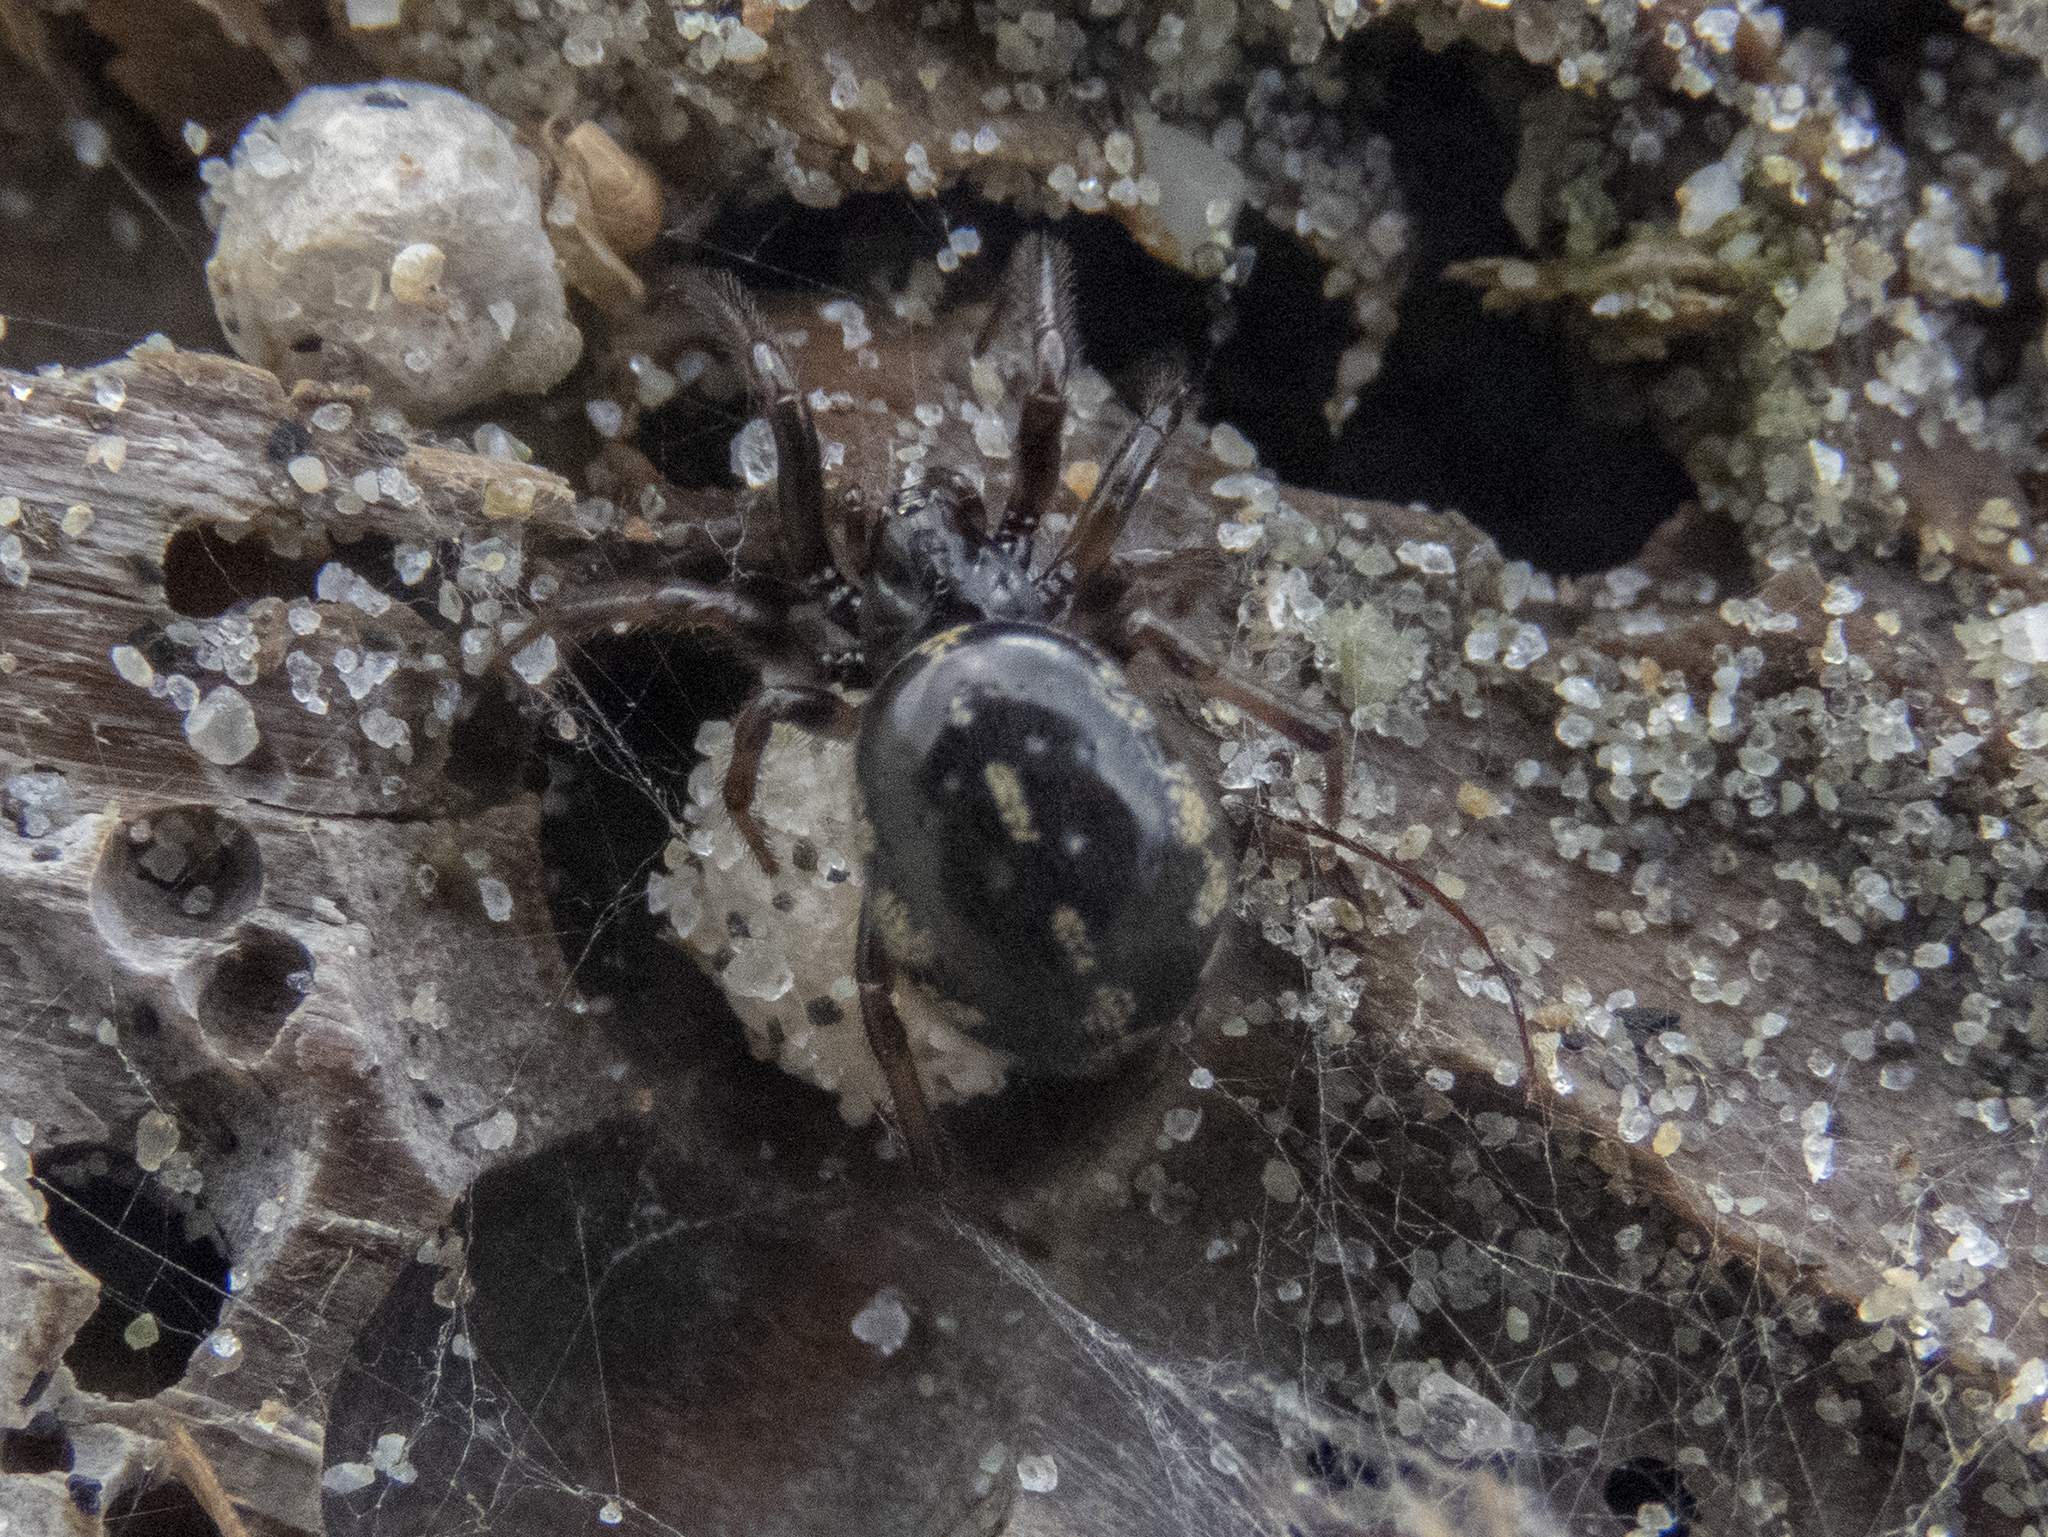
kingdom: Animalia
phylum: Arthropoda
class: Arachnida
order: Araneae
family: Theridiidae
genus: Steatoda
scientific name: Steatoda lepida
